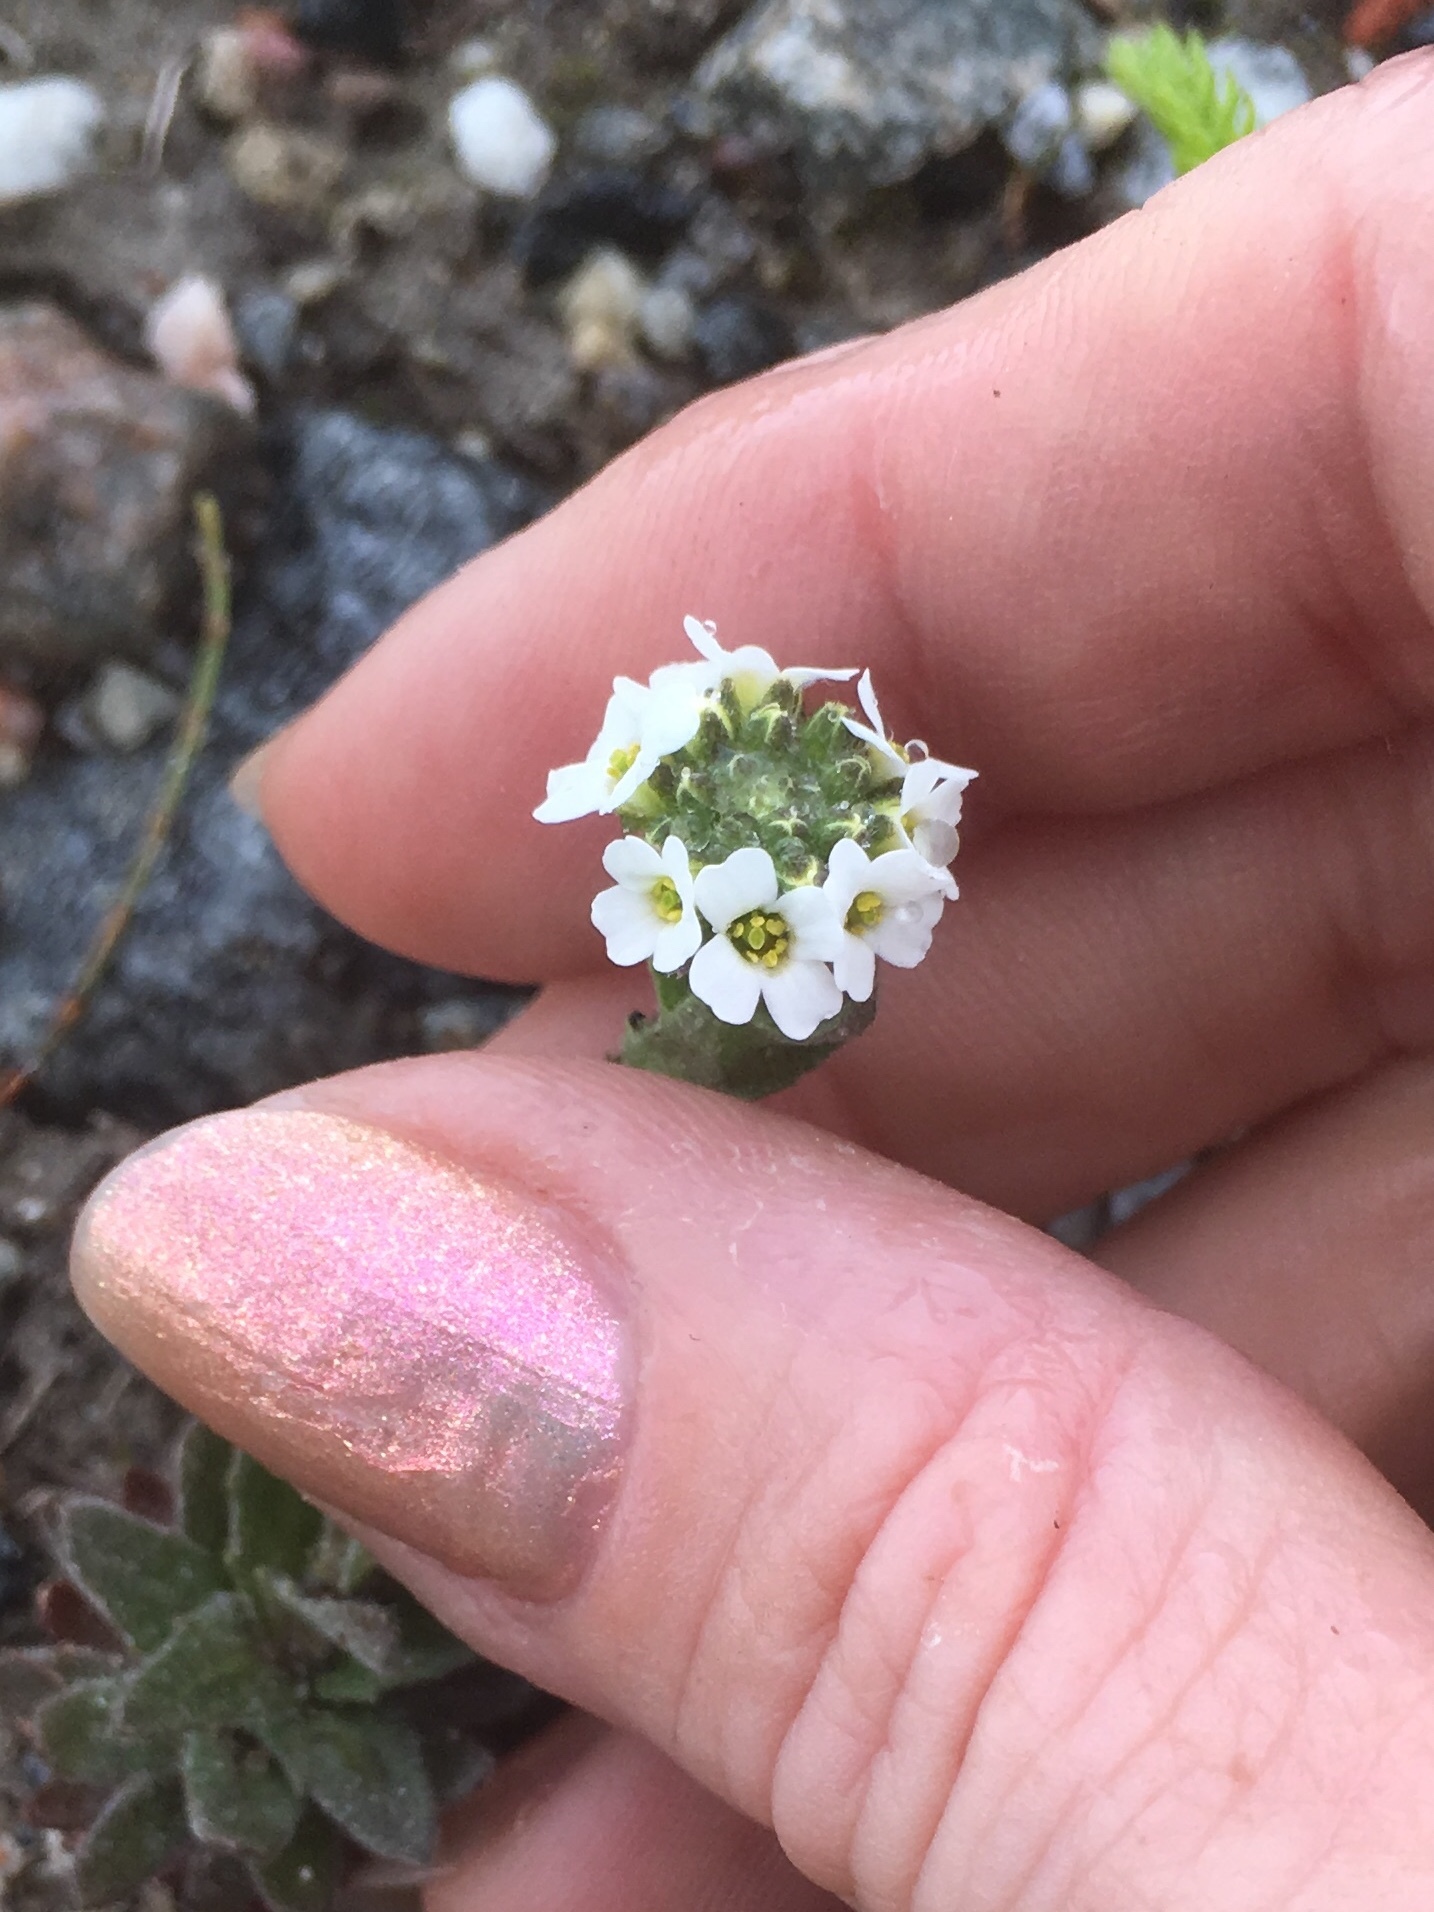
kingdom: Plantae
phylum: Tracheophyta
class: Magnoliopsida
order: Brassicales
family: Brassicaceae
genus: Draba
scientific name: Draba arabisans
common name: Rock draba
